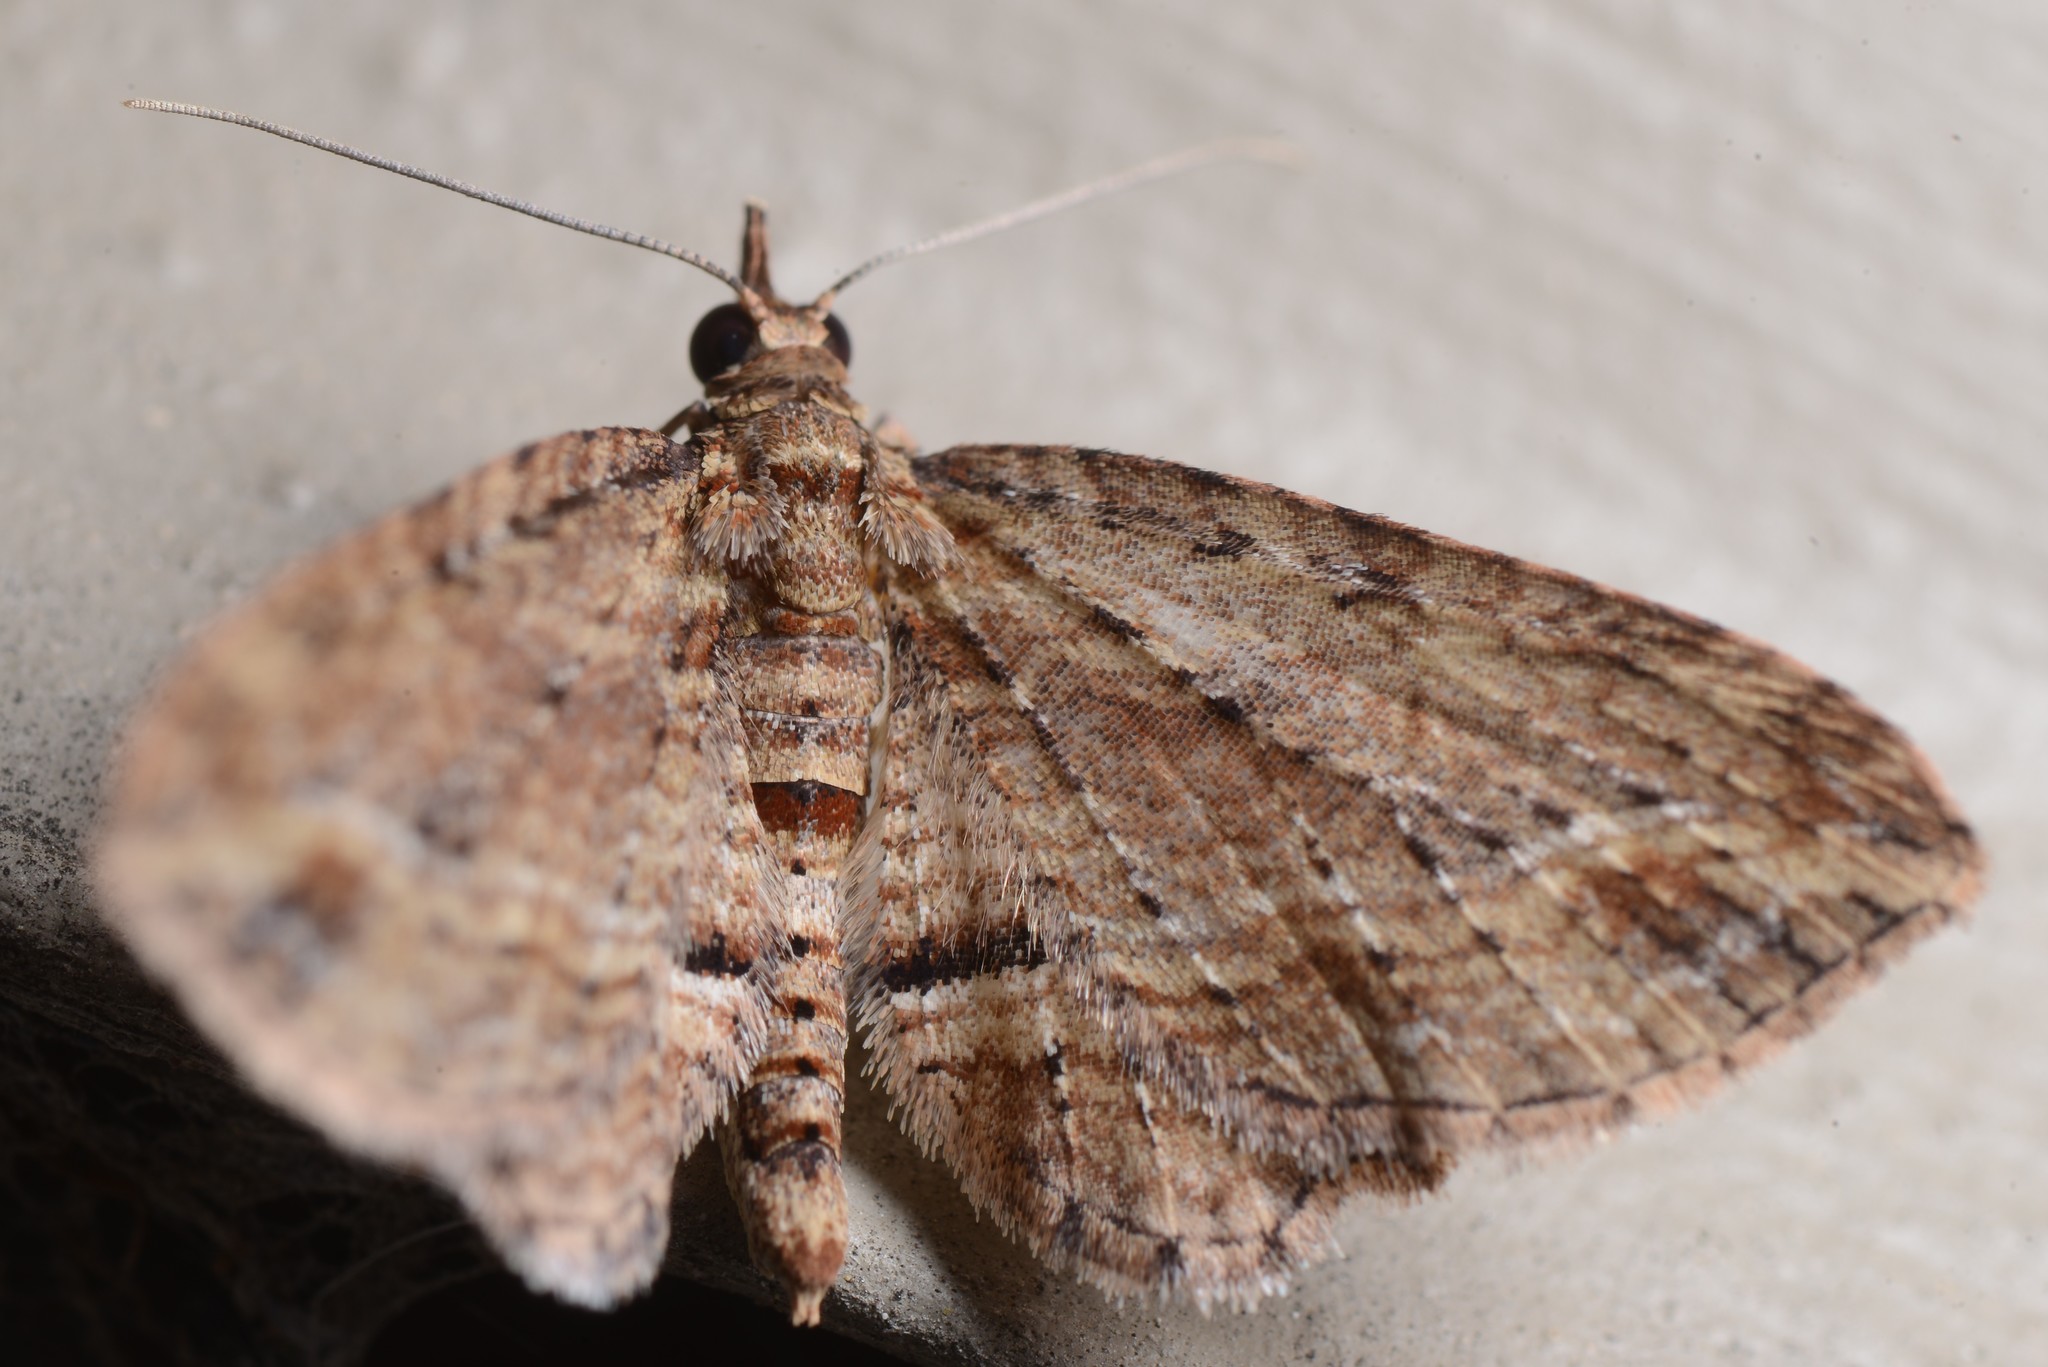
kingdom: Animalia
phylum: Arthropoda
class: Insecta
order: Lepidoptera
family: Geometridae
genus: Chloroclystis
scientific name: Chloroclystis filata
